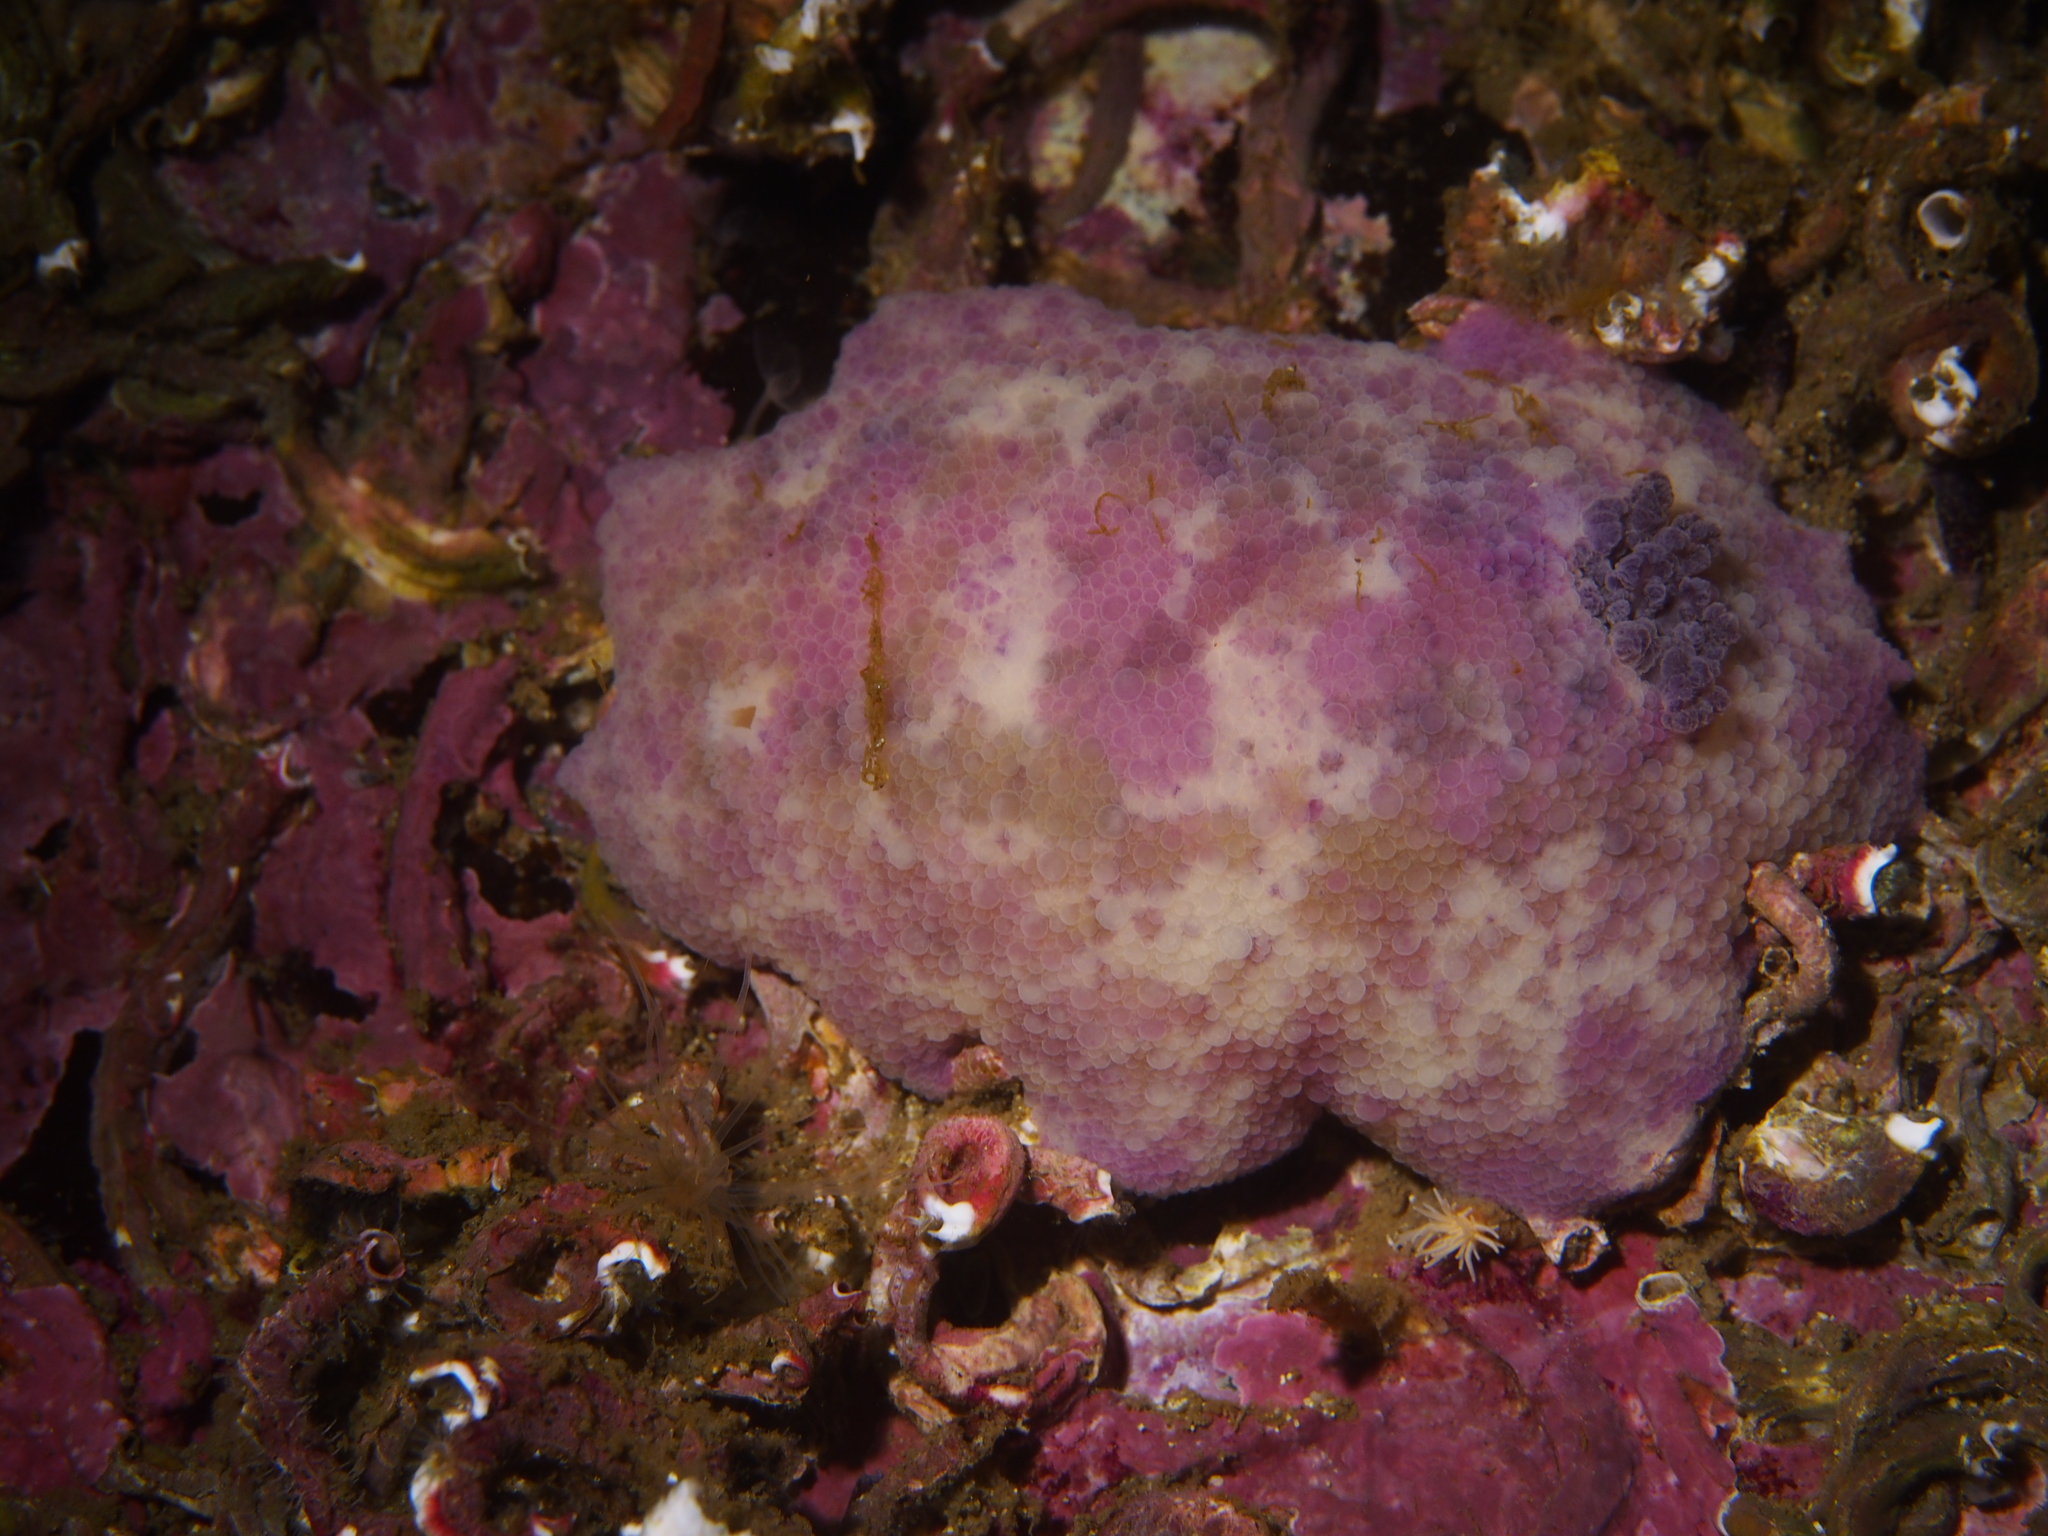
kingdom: Animalia
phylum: Mollusca
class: Gastropoda
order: Nudibranchia
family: Dorididae
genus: Doris
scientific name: Doris pseudoargus
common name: Sea lemon
